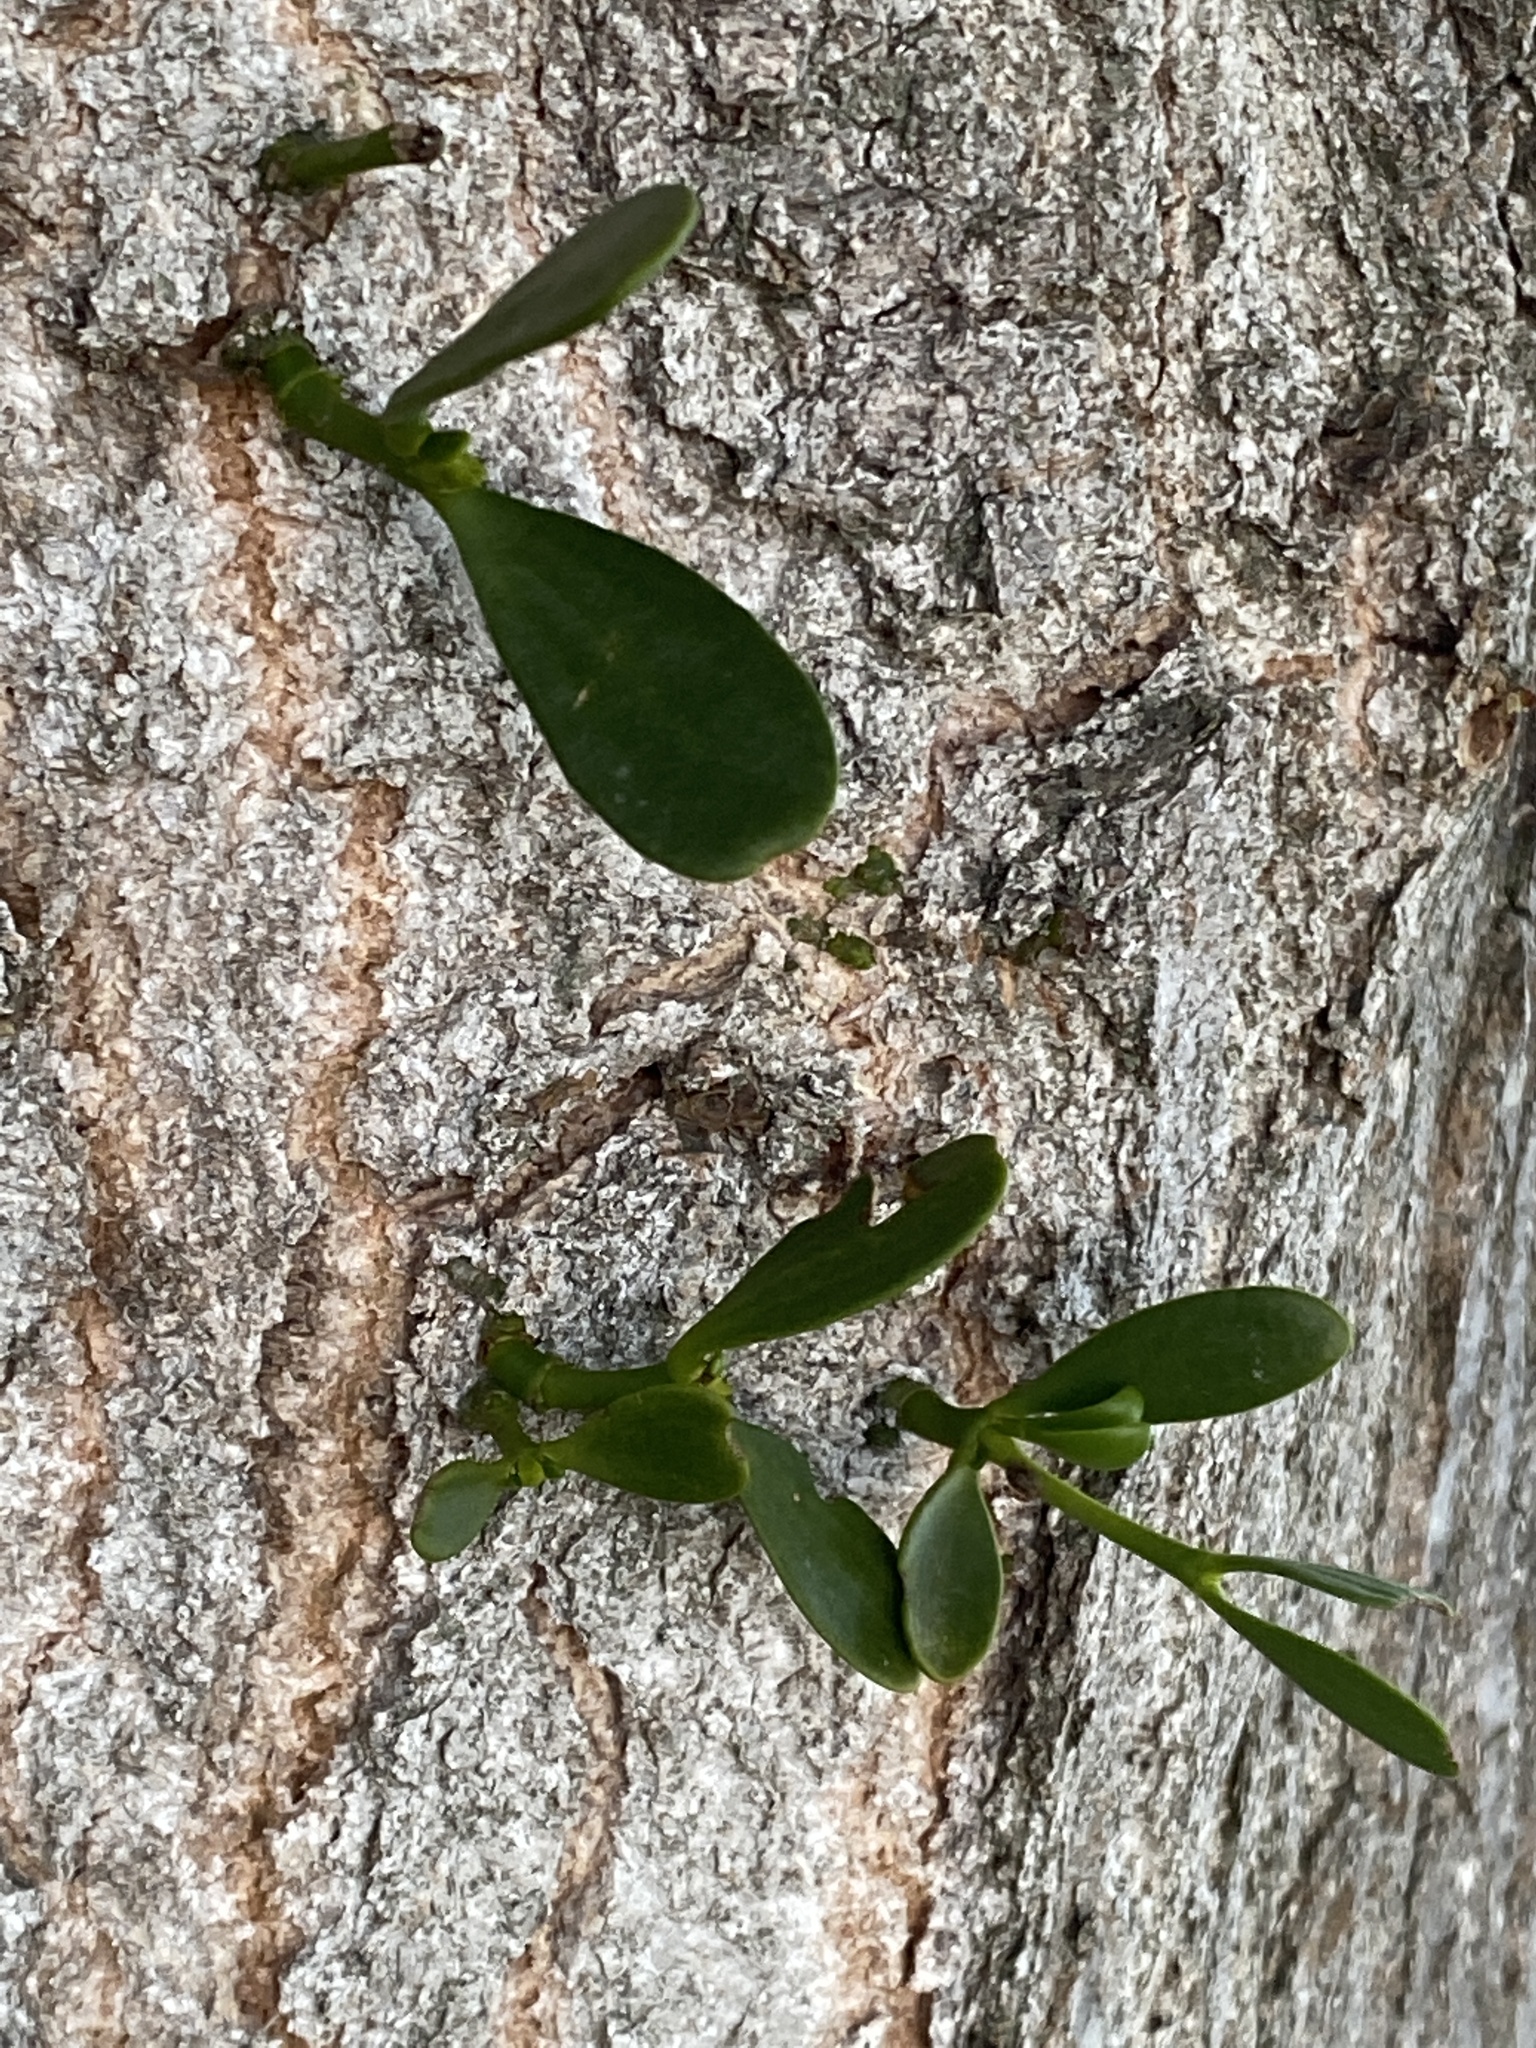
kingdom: Plantae
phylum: Tracheophyta
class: Magnoliopsida
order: Santalales
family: Viscaceae
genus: Viscum
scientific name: Viscum album
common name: Mistletoe
